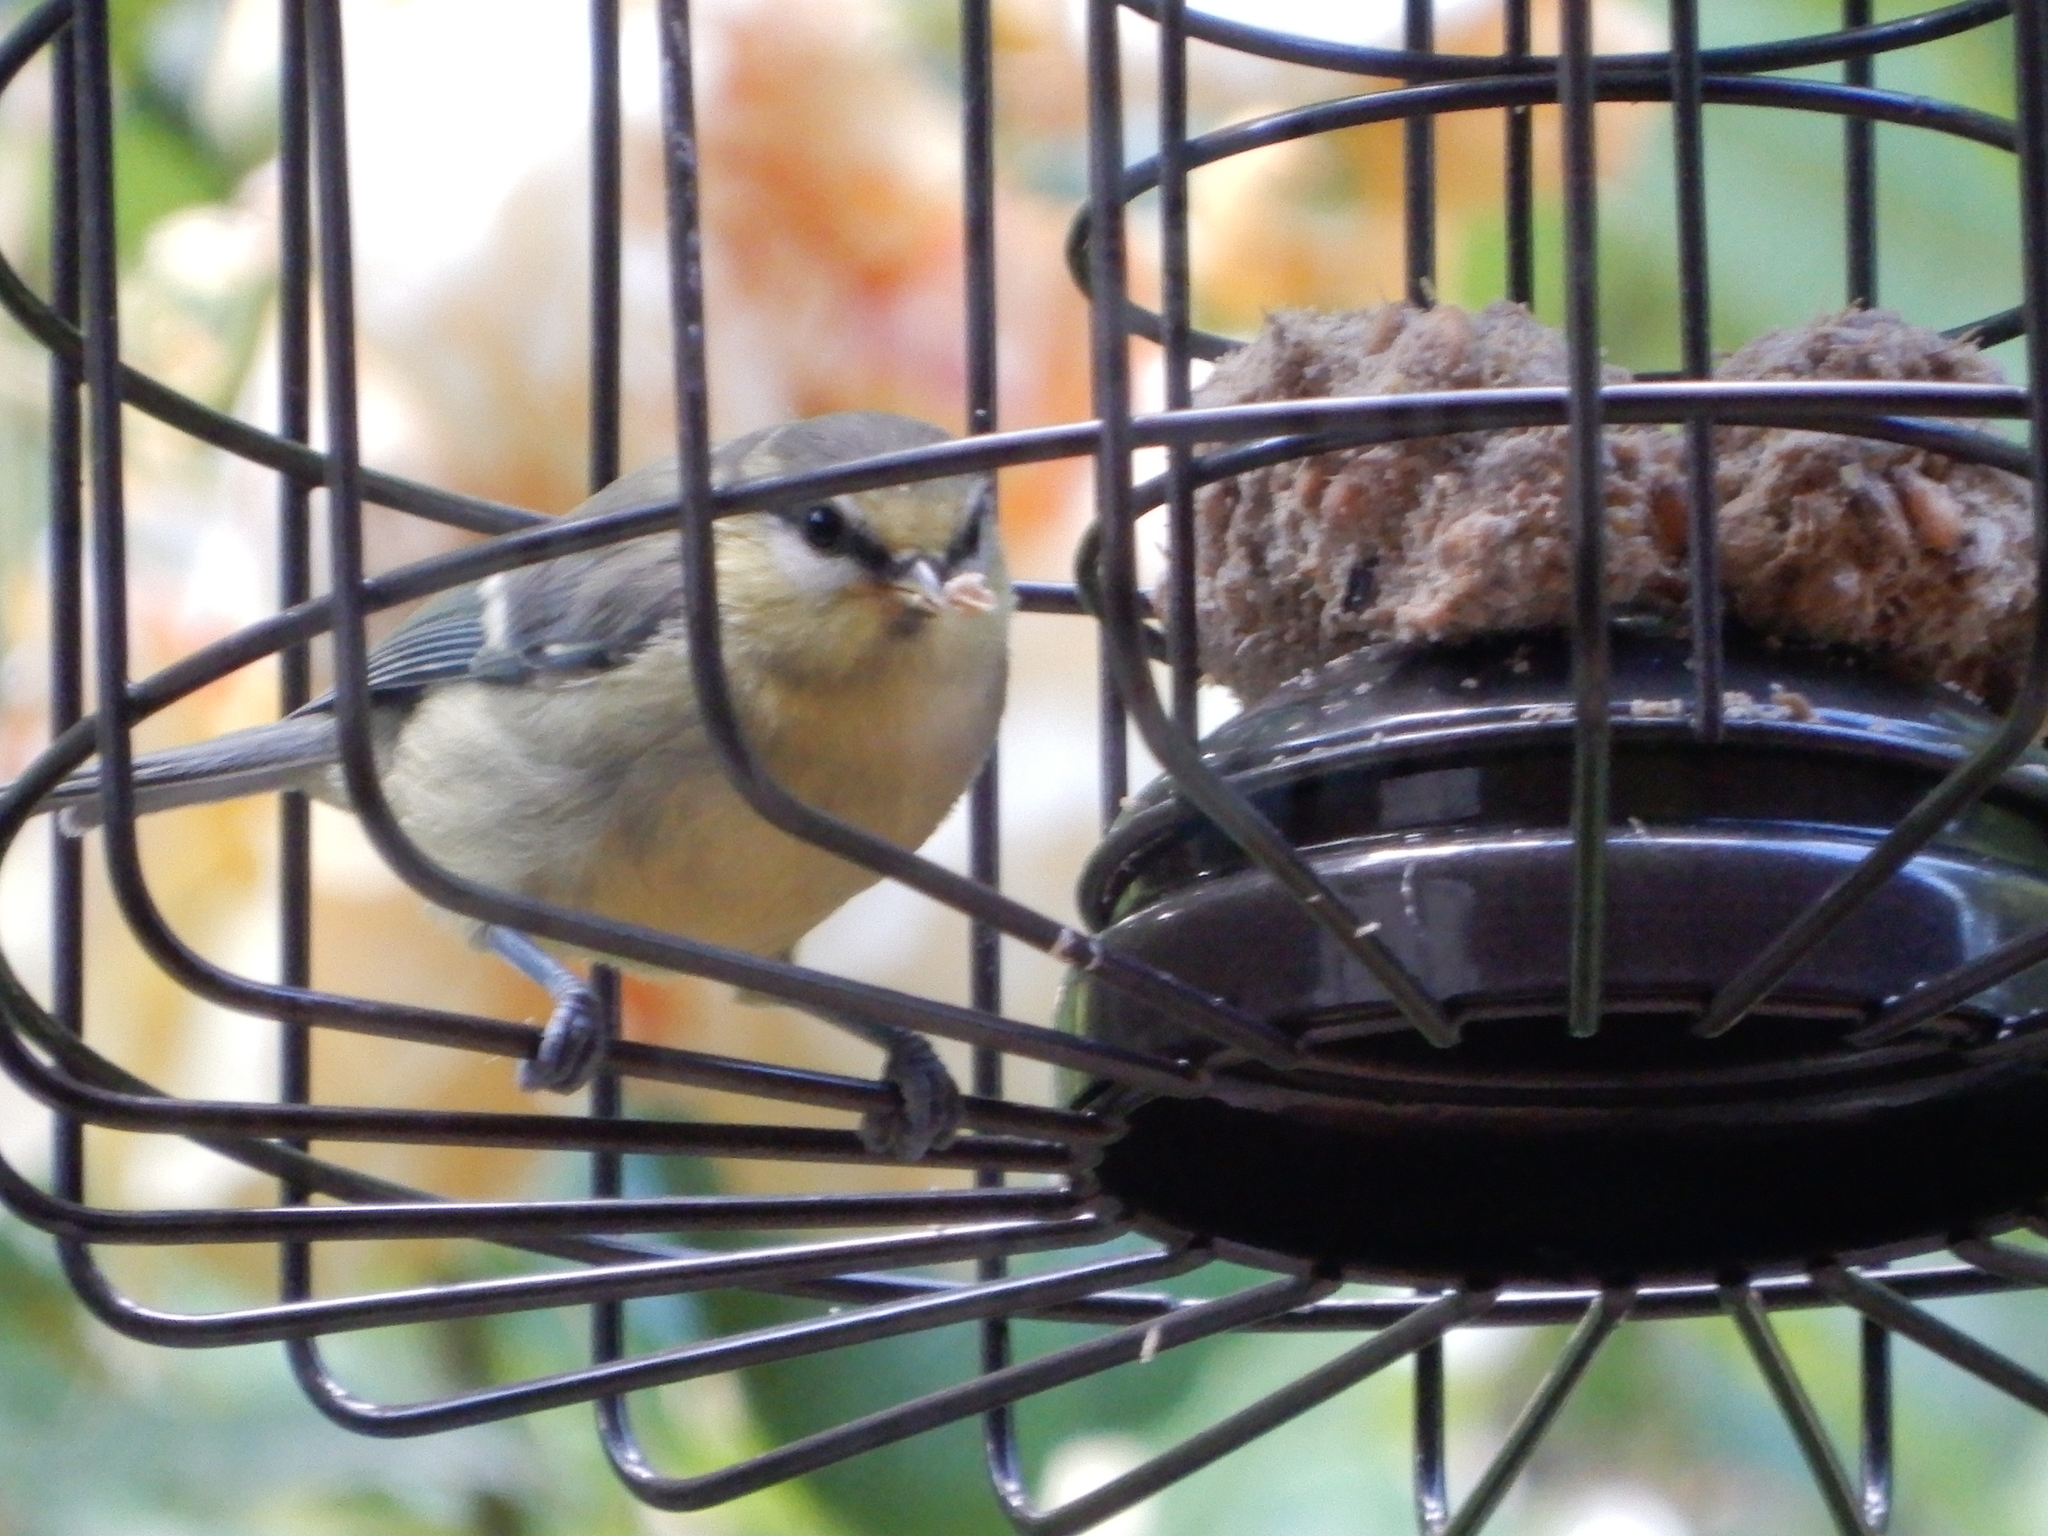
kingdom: Animalia
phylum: Chordata
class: Aves
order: Passeriformes
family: Paridae
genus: Cyanistes
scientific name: Cyanistes caeruleus
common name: Eurasian blue tit
